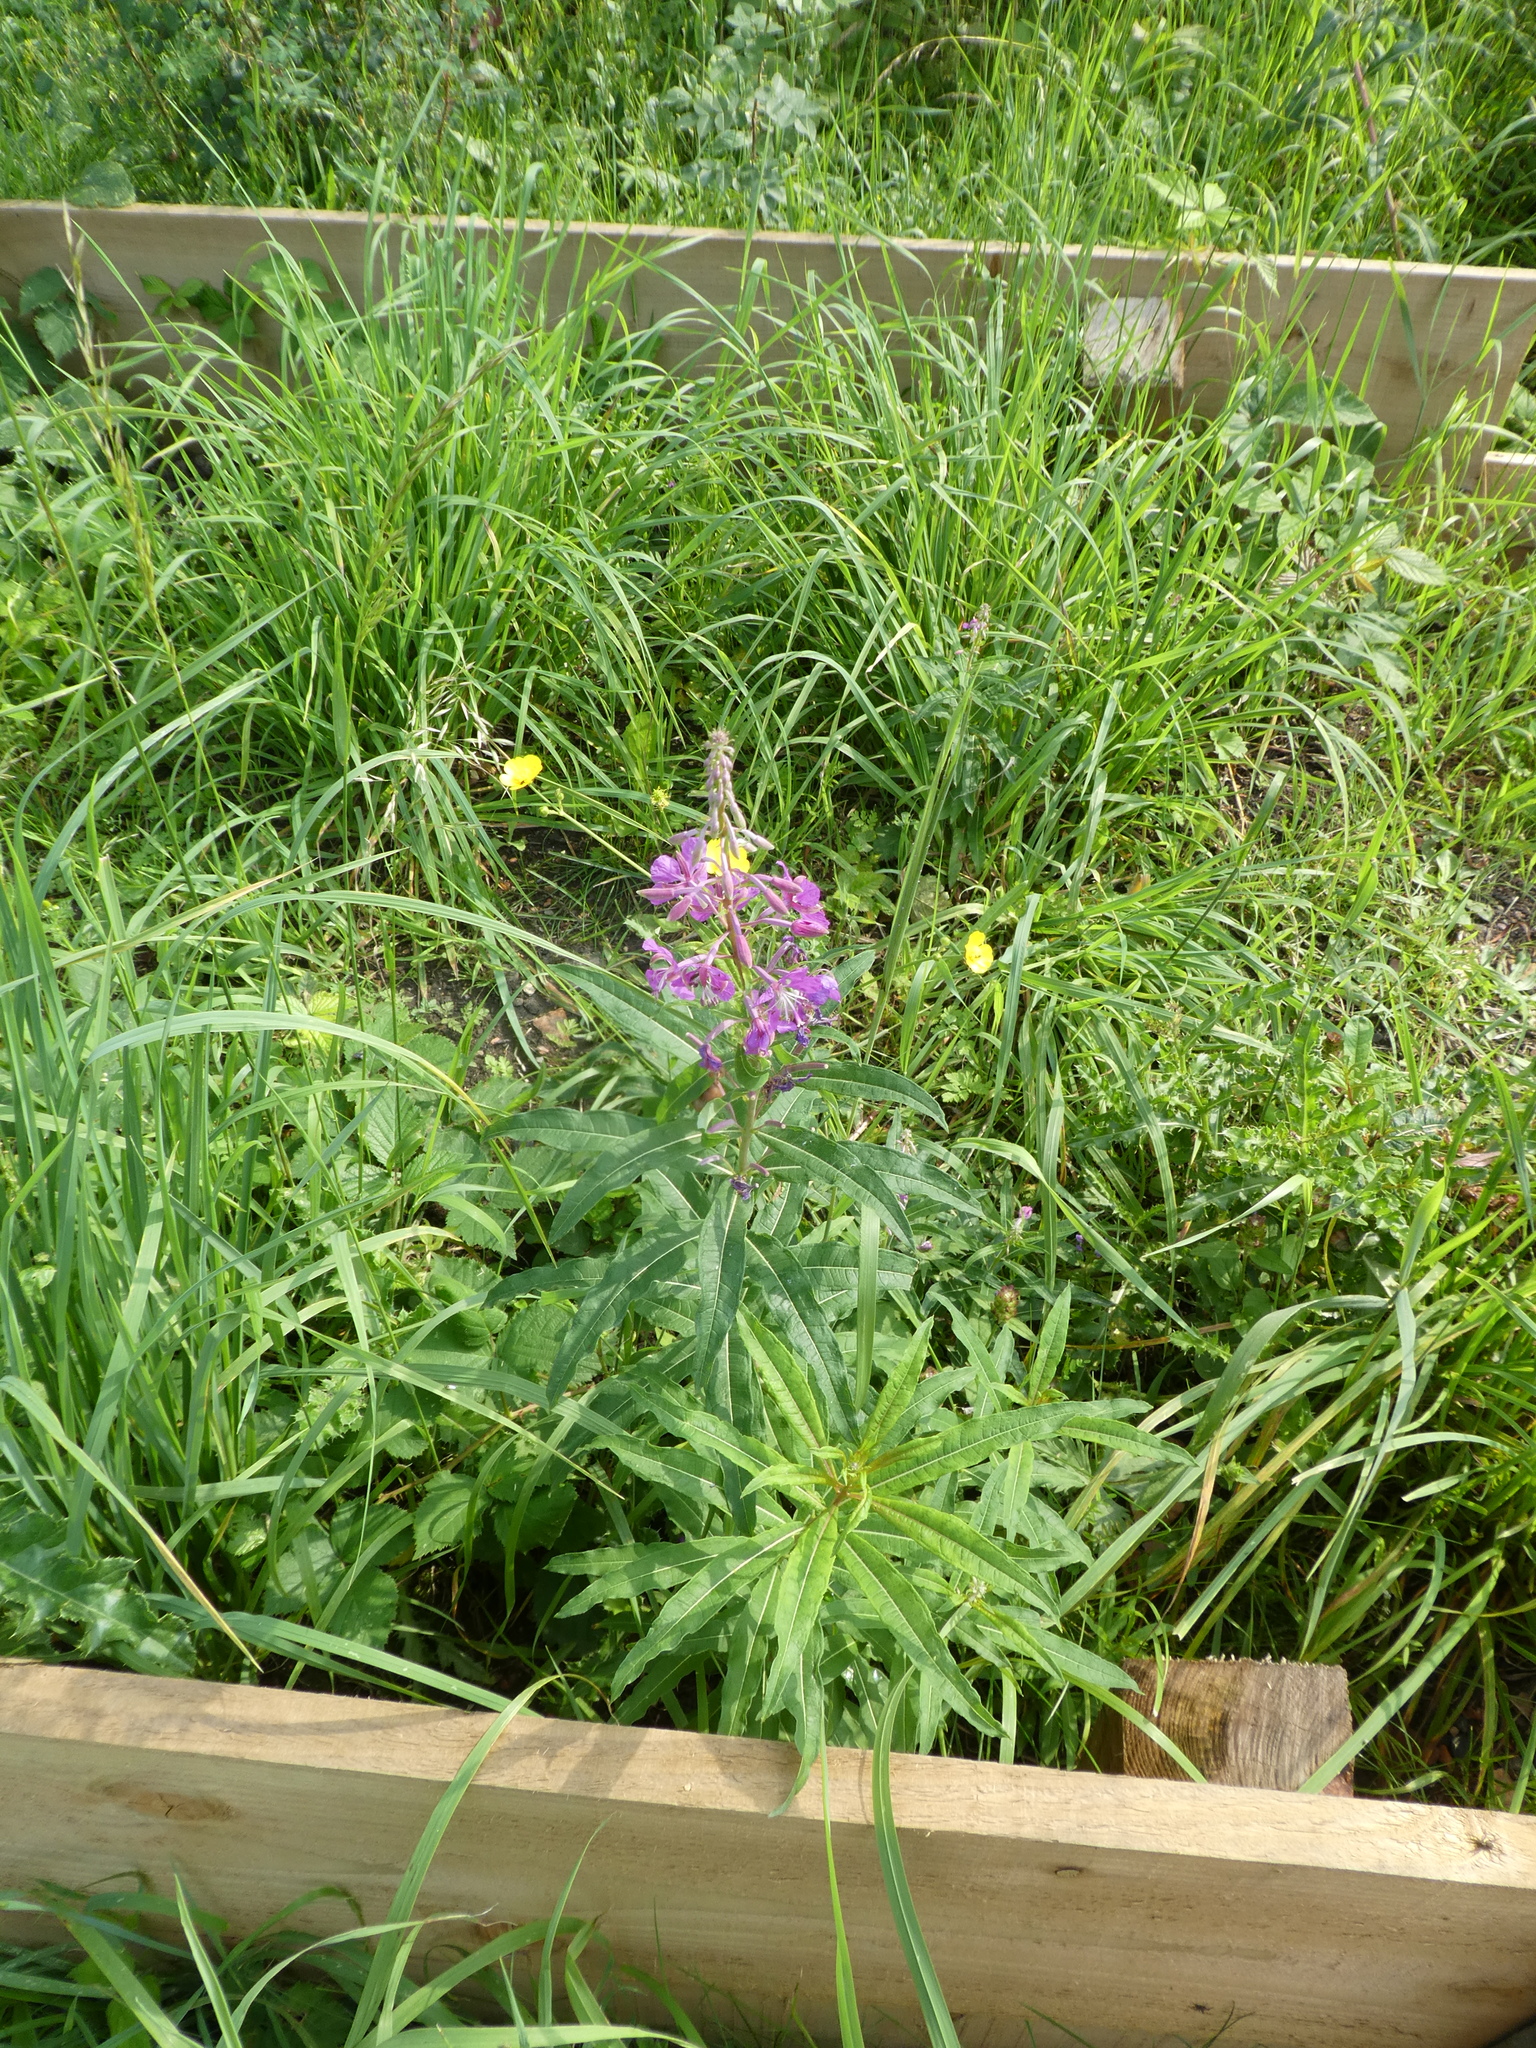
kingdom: Plantae
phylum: Tracheophyta
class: Magnoliopsida
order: Myrtales
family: Onagraceae
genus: Chamaenerion
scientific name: Chamaenerion angustifolium
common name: Fireweed
